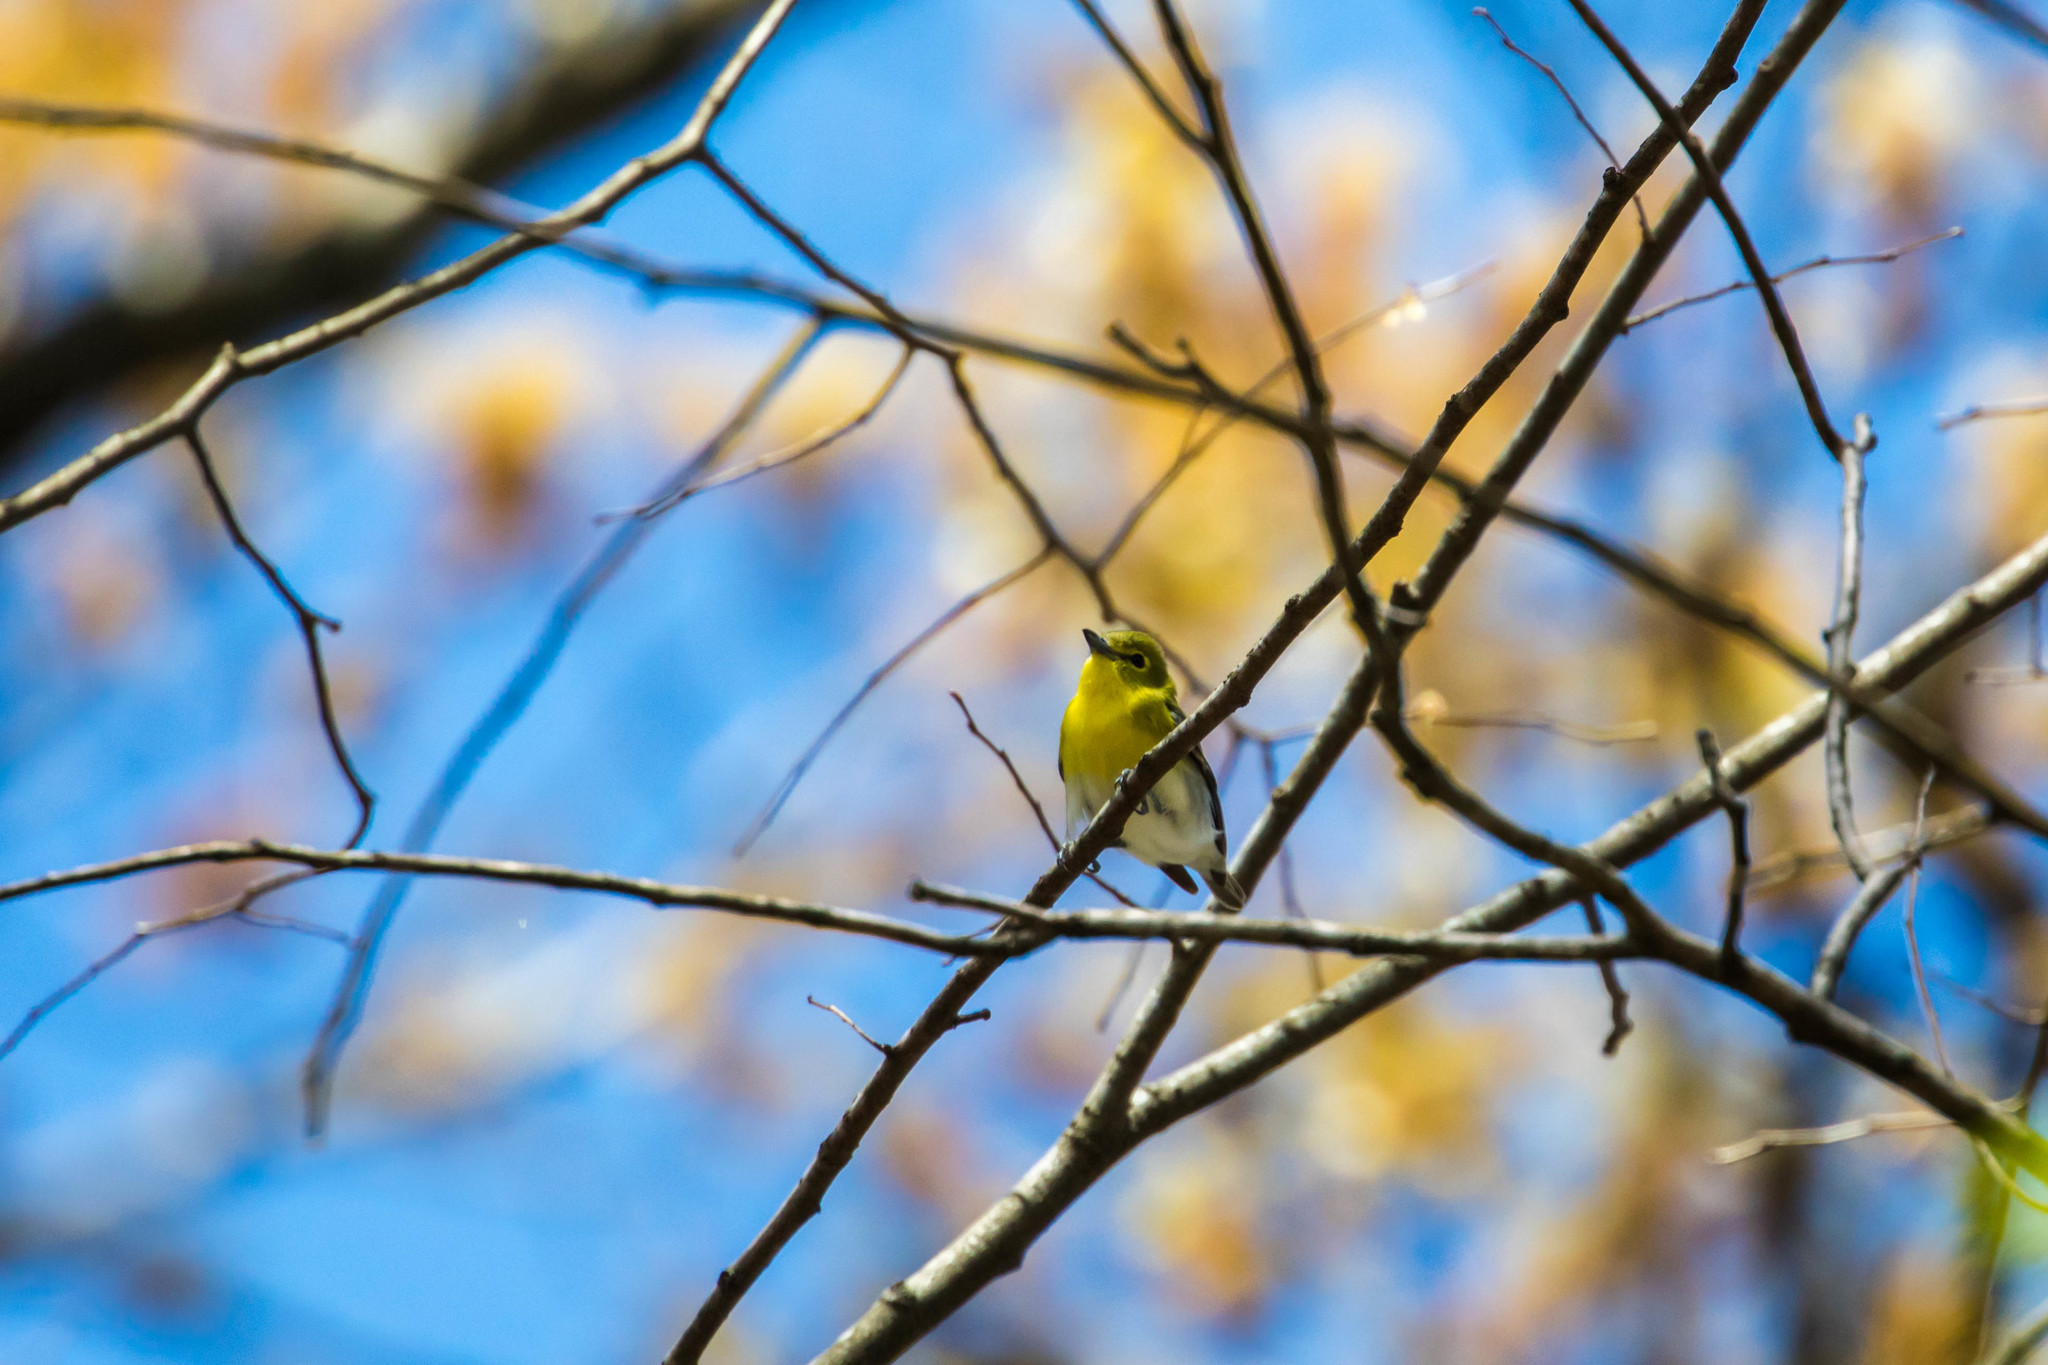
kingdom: Animalia
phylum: Chordata
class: Aves
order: Passeriformes
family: Vireonidae
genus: Vireo
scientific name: Vireo flavifrons
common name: Yellow-throated vireo
